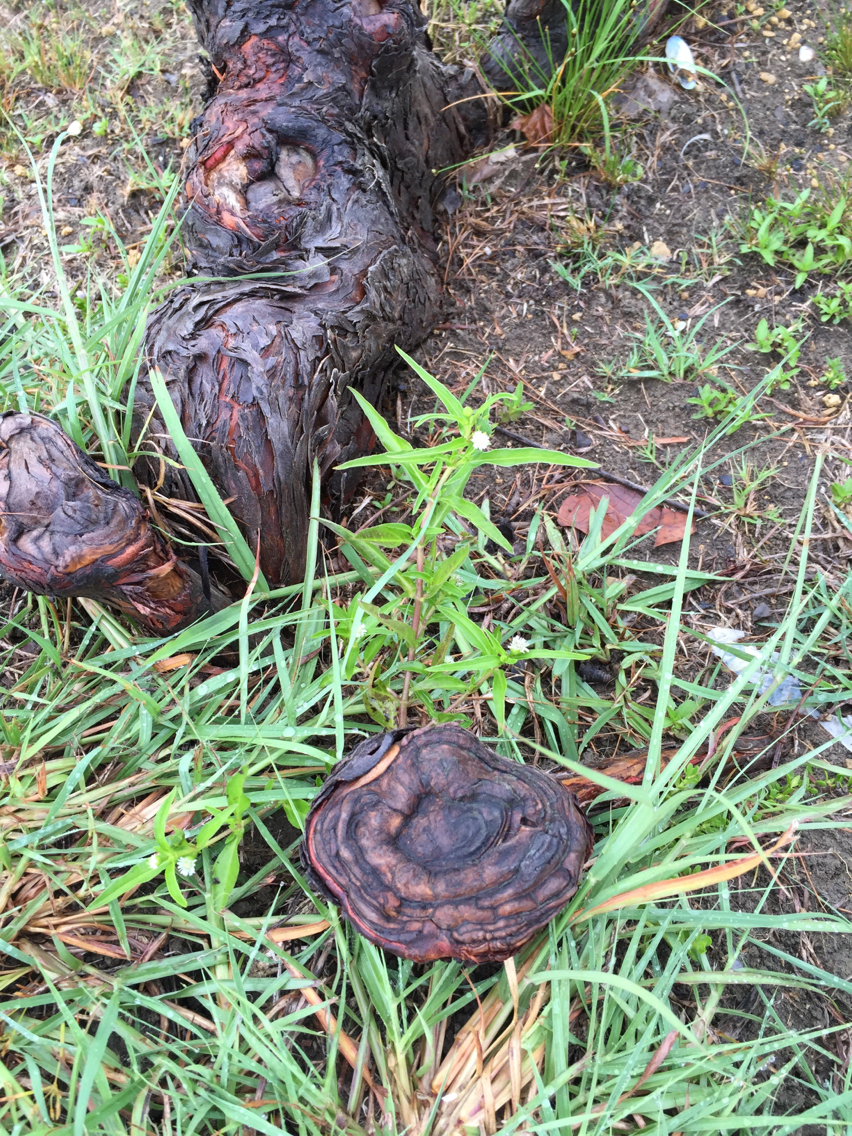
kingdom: Plantae
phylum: Tracheophyta
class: Magnoliopsida
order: Asterales
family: Asteraceae
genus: Eclipta
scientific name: Eclipta prostrata
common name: False daisy
